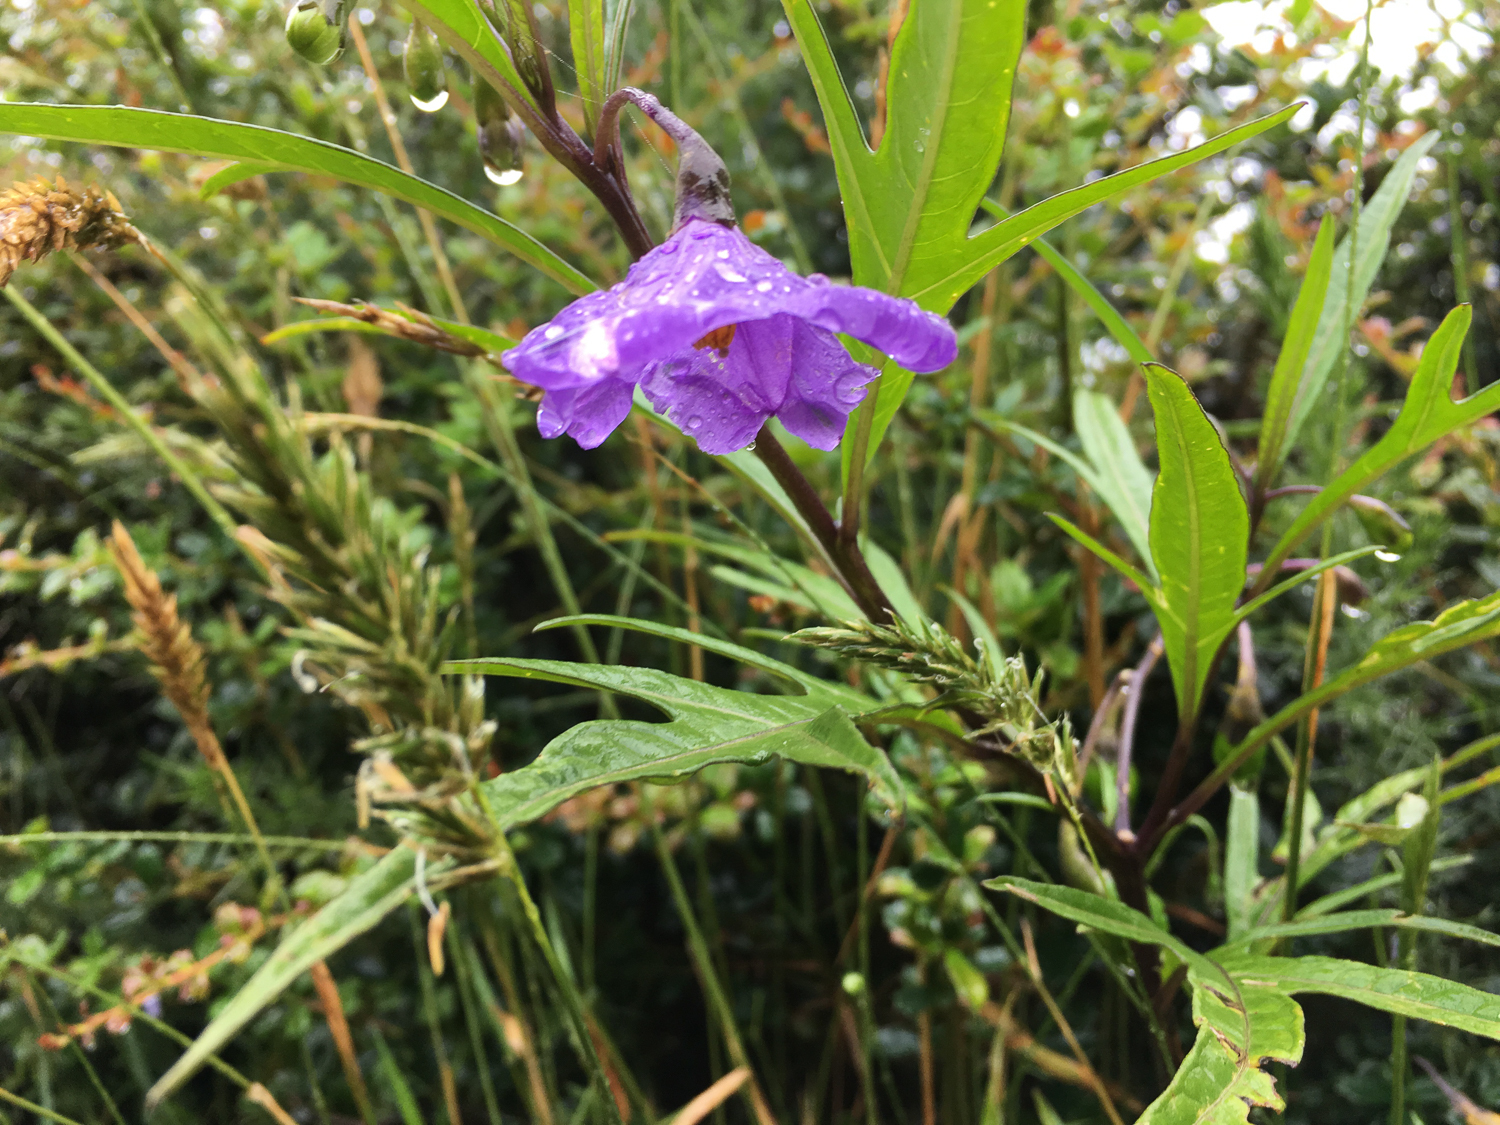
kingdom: Plantae
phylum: Tracheophyta
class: Magnoliopsida
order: Solanales
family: Solanaceae
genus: Solanum
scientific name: Solanum laciniatum
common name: Kangaroo-apple
